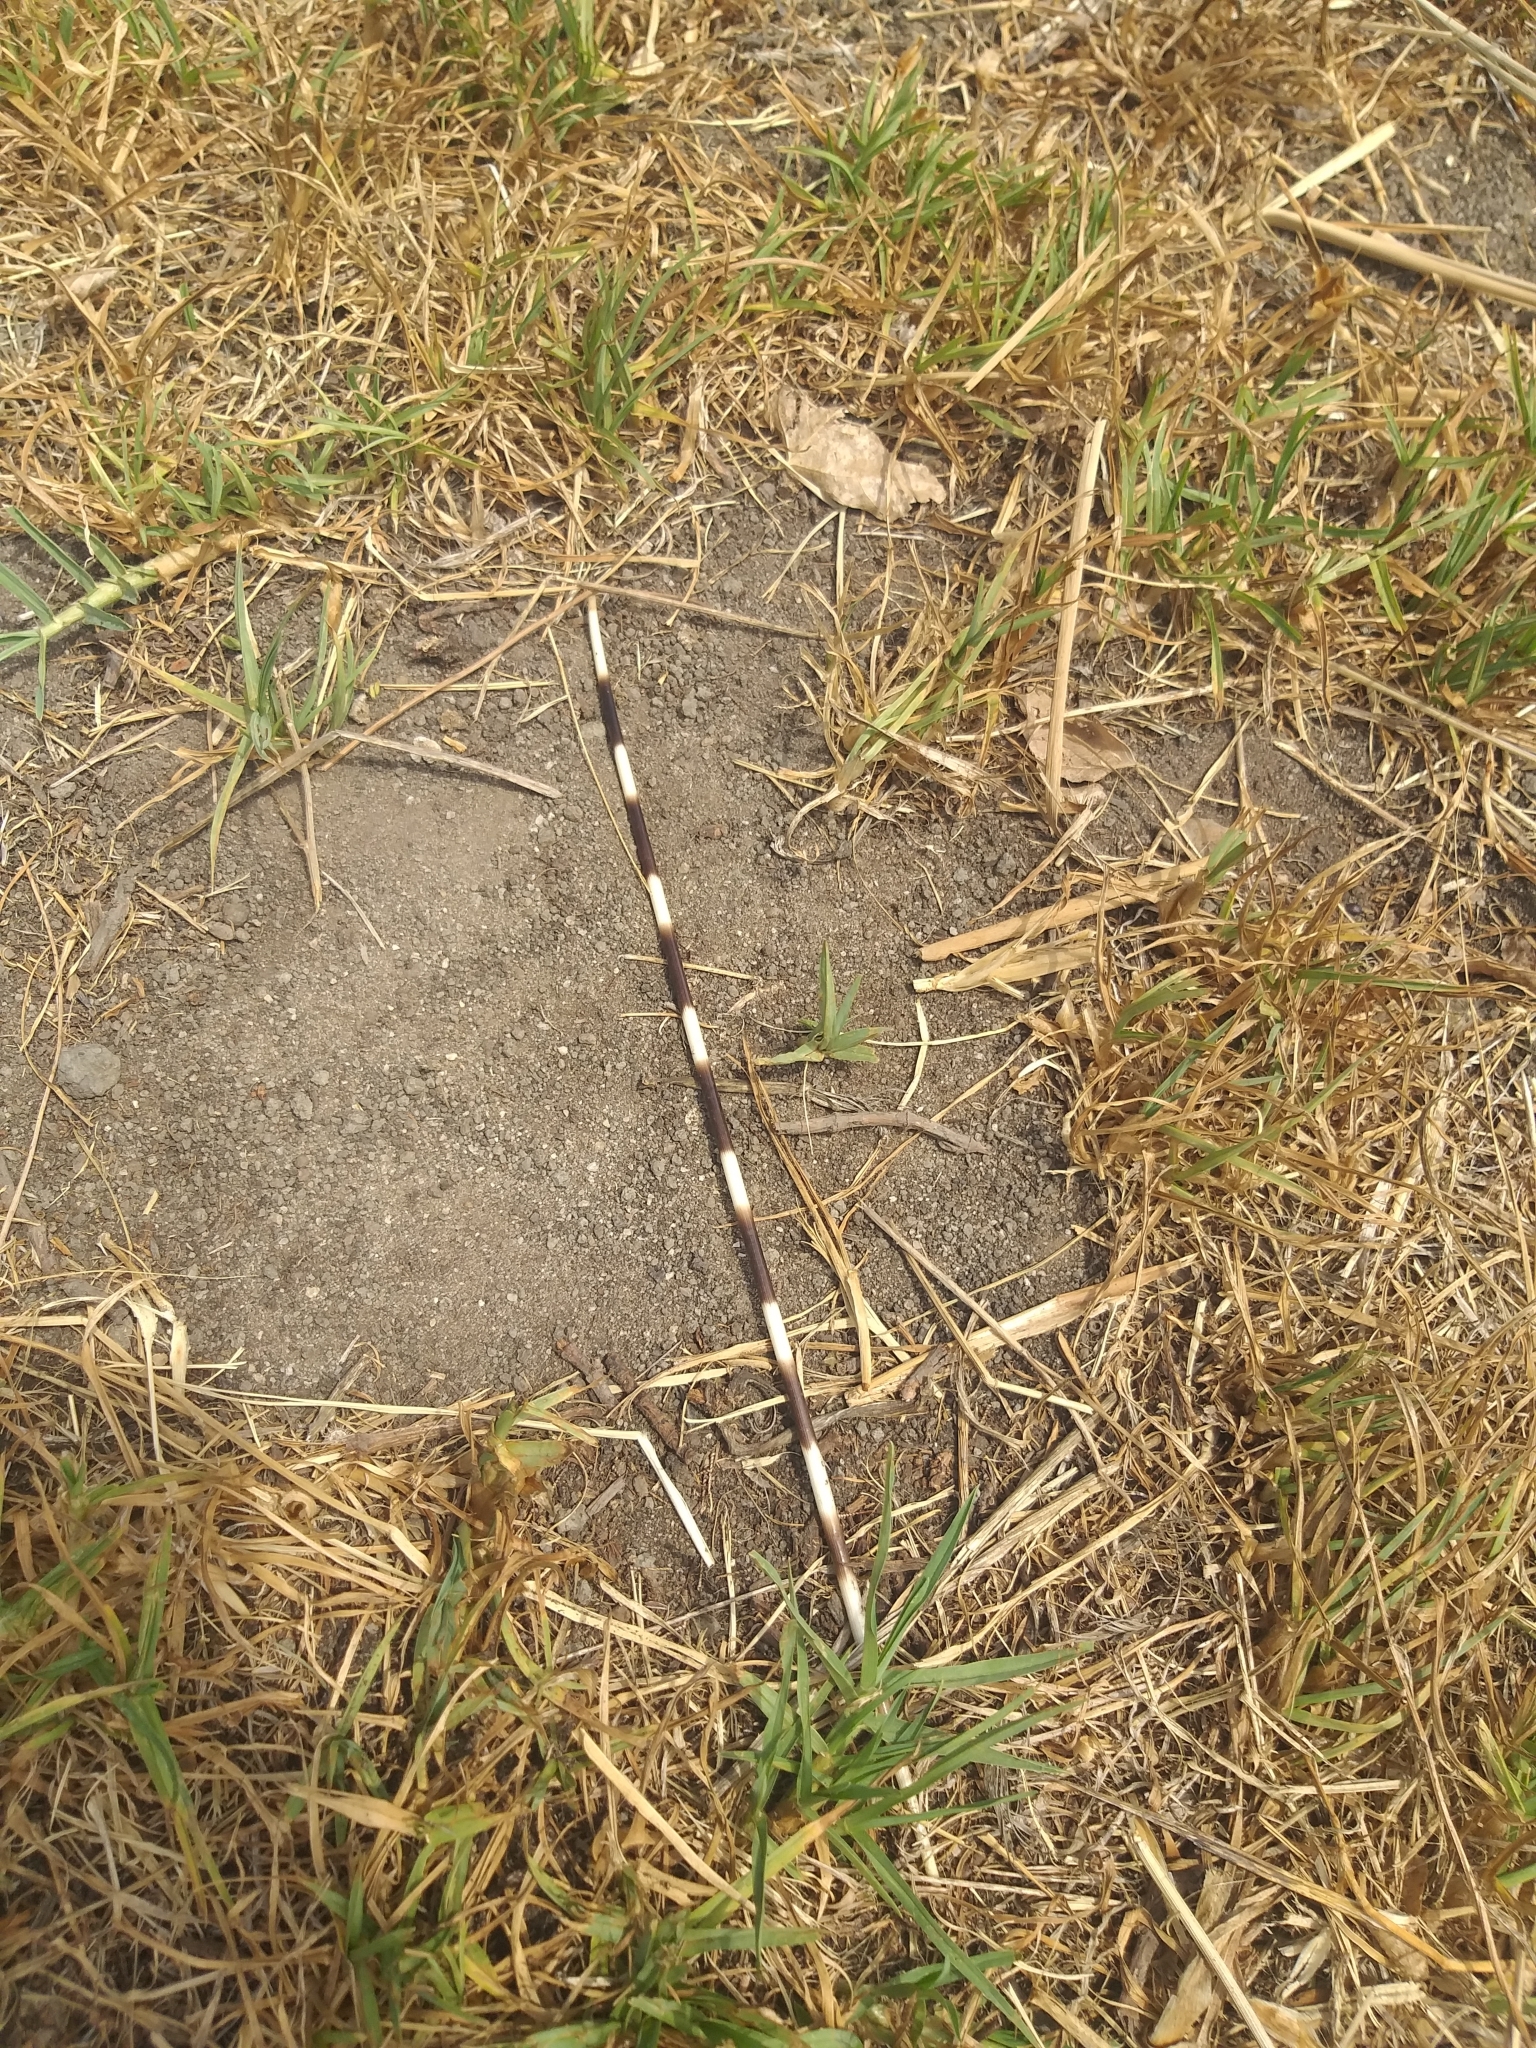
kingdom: Animalia
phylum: Chordata
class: Mammalia
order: Rodentia
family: Hystricidae
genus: Hystrix
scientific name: Hystrix africaeaustralis
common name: Cape porcupine
